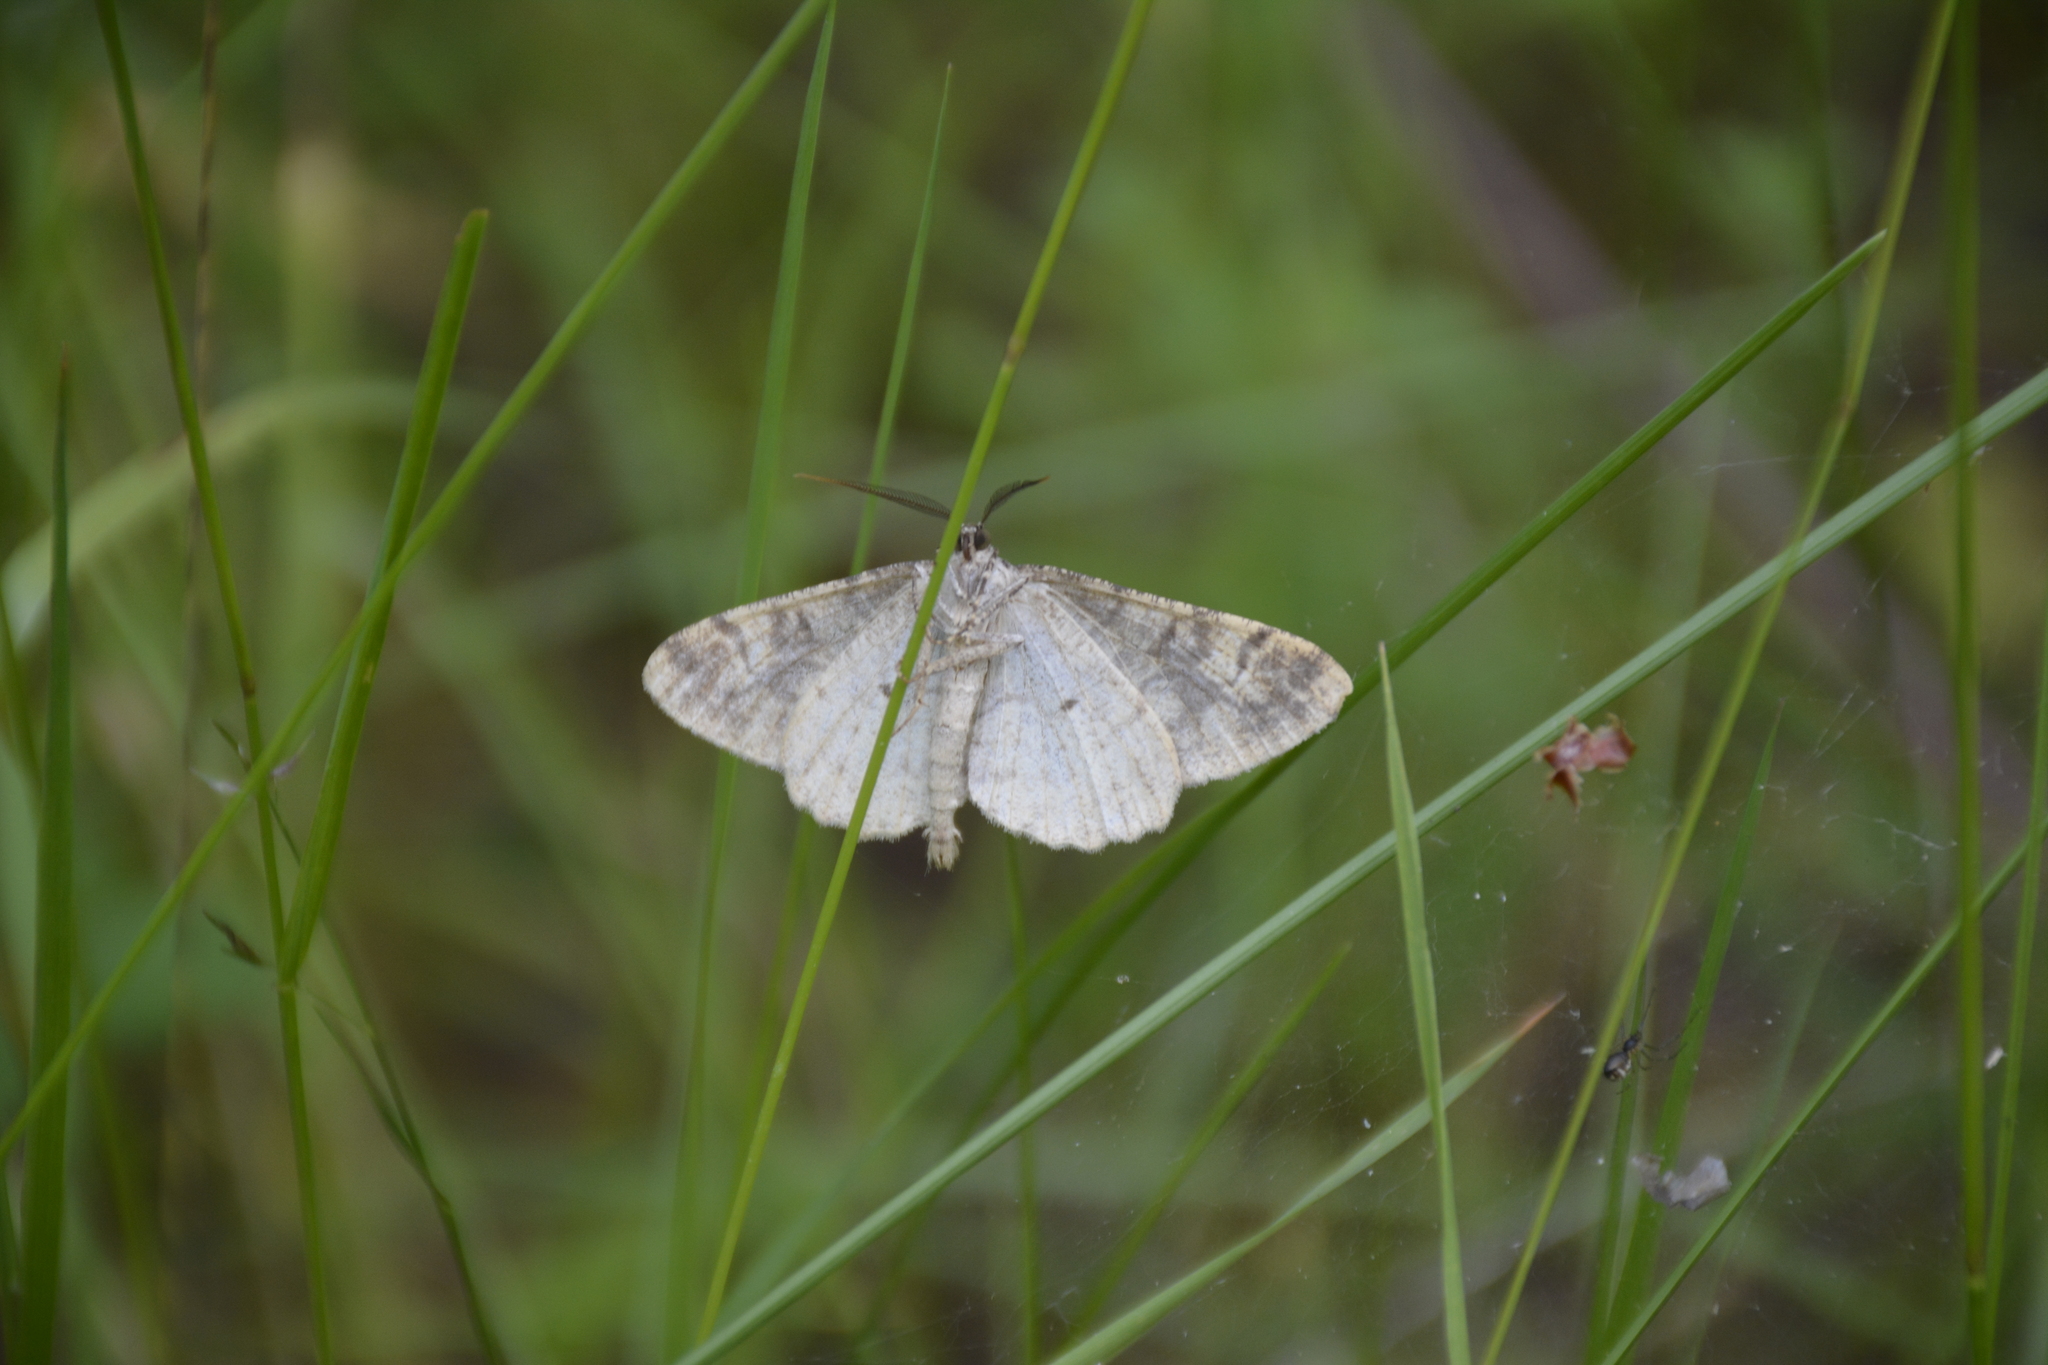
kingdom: Animalia
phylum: Arthropoda
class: Insecta
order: Lepidoptera
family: Geometridae
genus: Alcis
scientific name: Alcis repandata
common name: Mottled beauty
